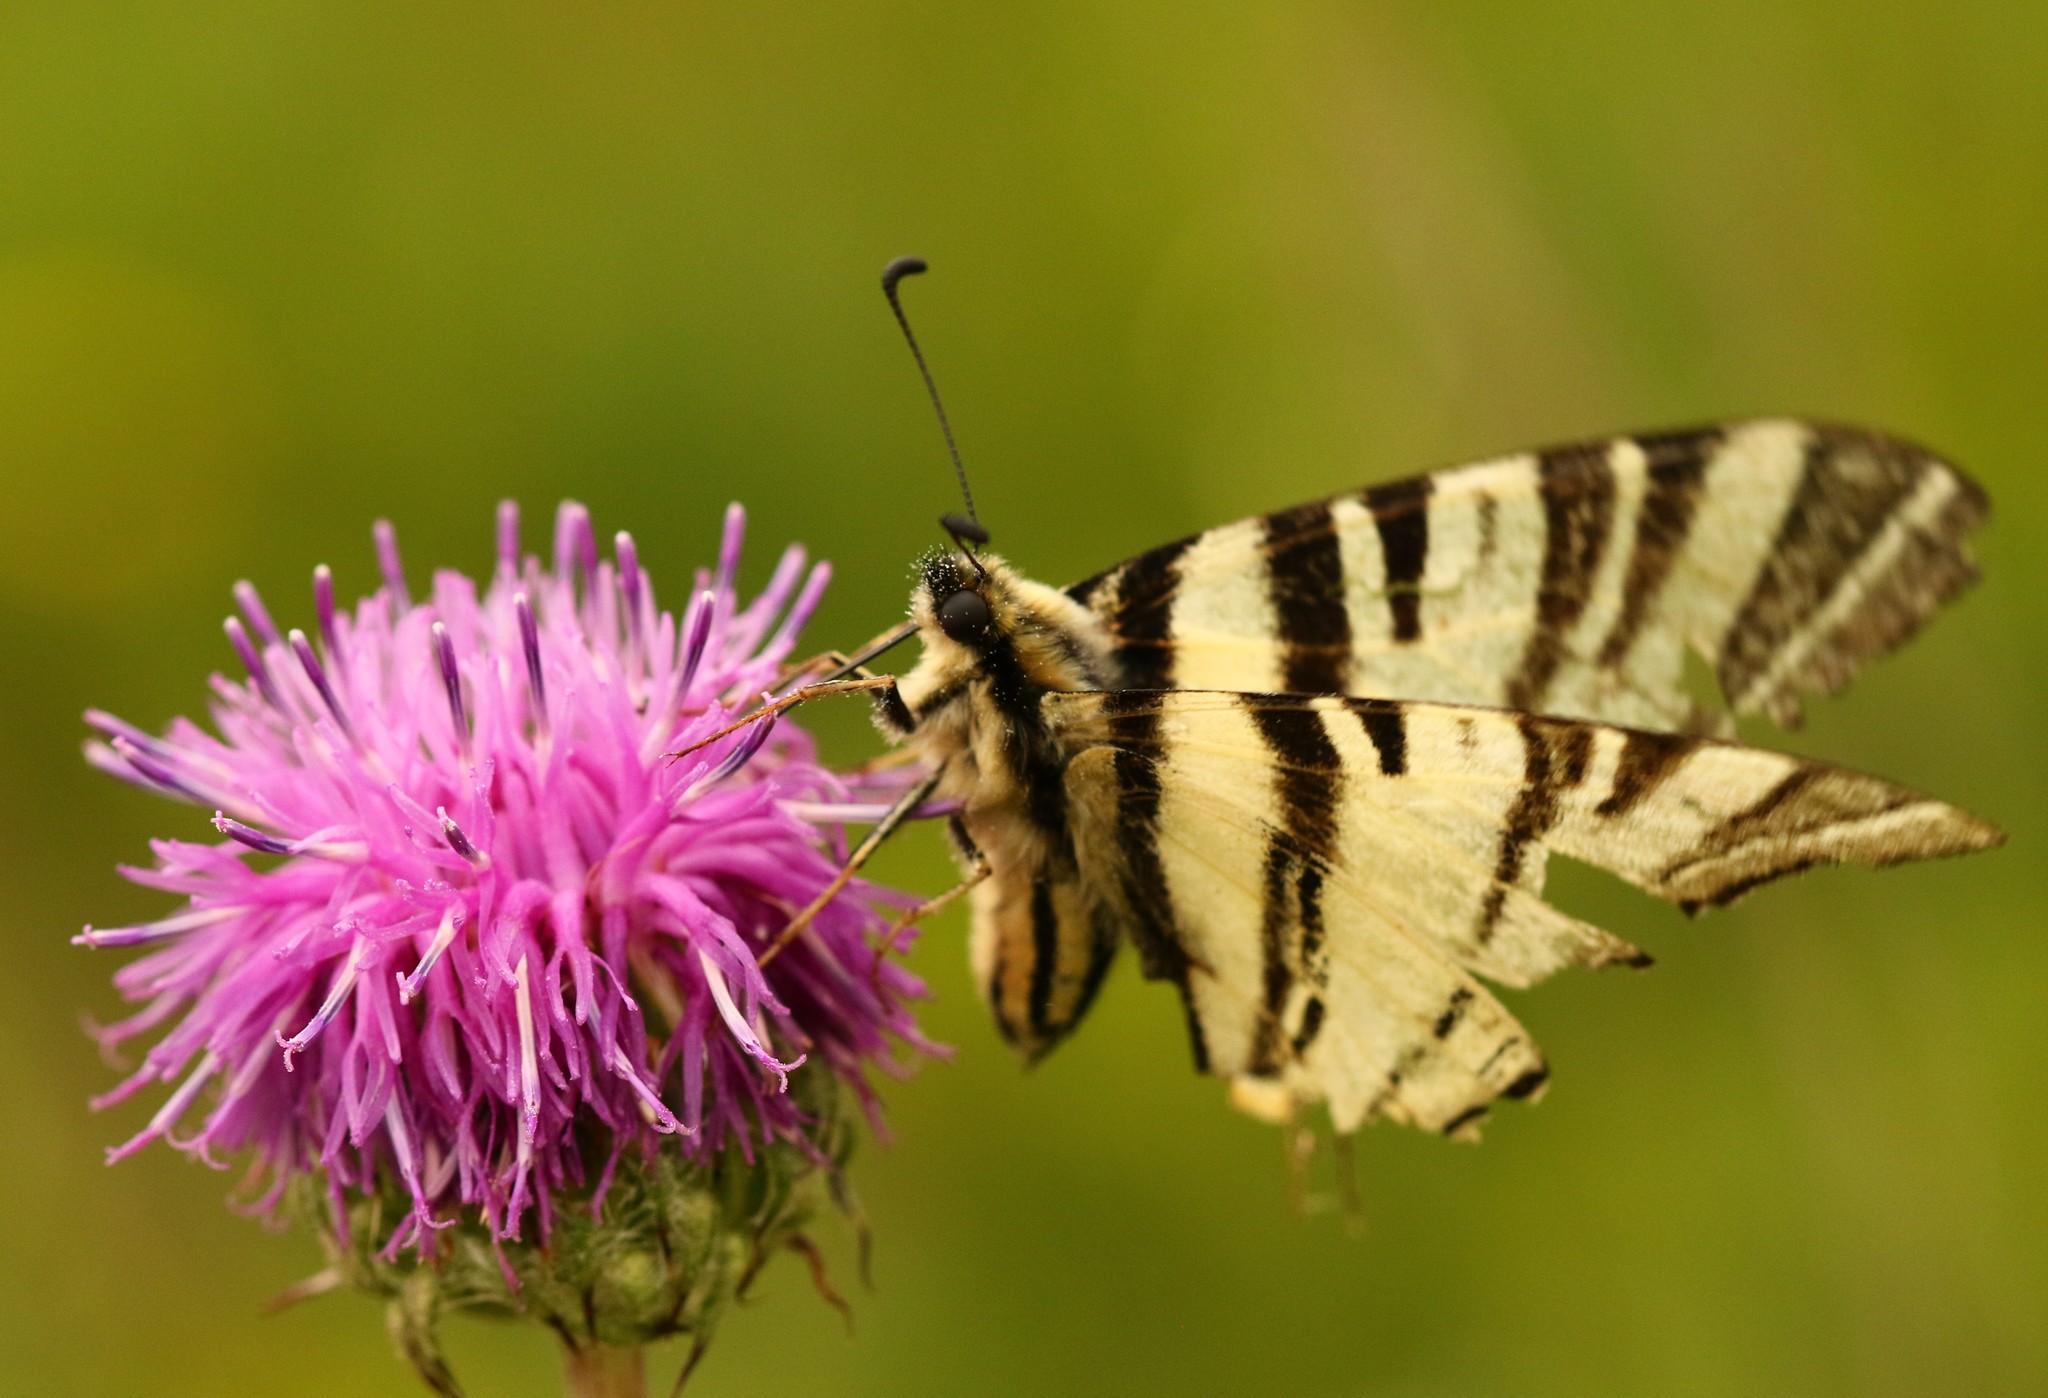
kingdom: Animalia
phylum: Arthropoda
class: Insecta
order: Lepidoptera
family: Papilionidae
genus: Iphiclides
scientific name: Iphiclides podalirius
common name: Scarce swallowtail
